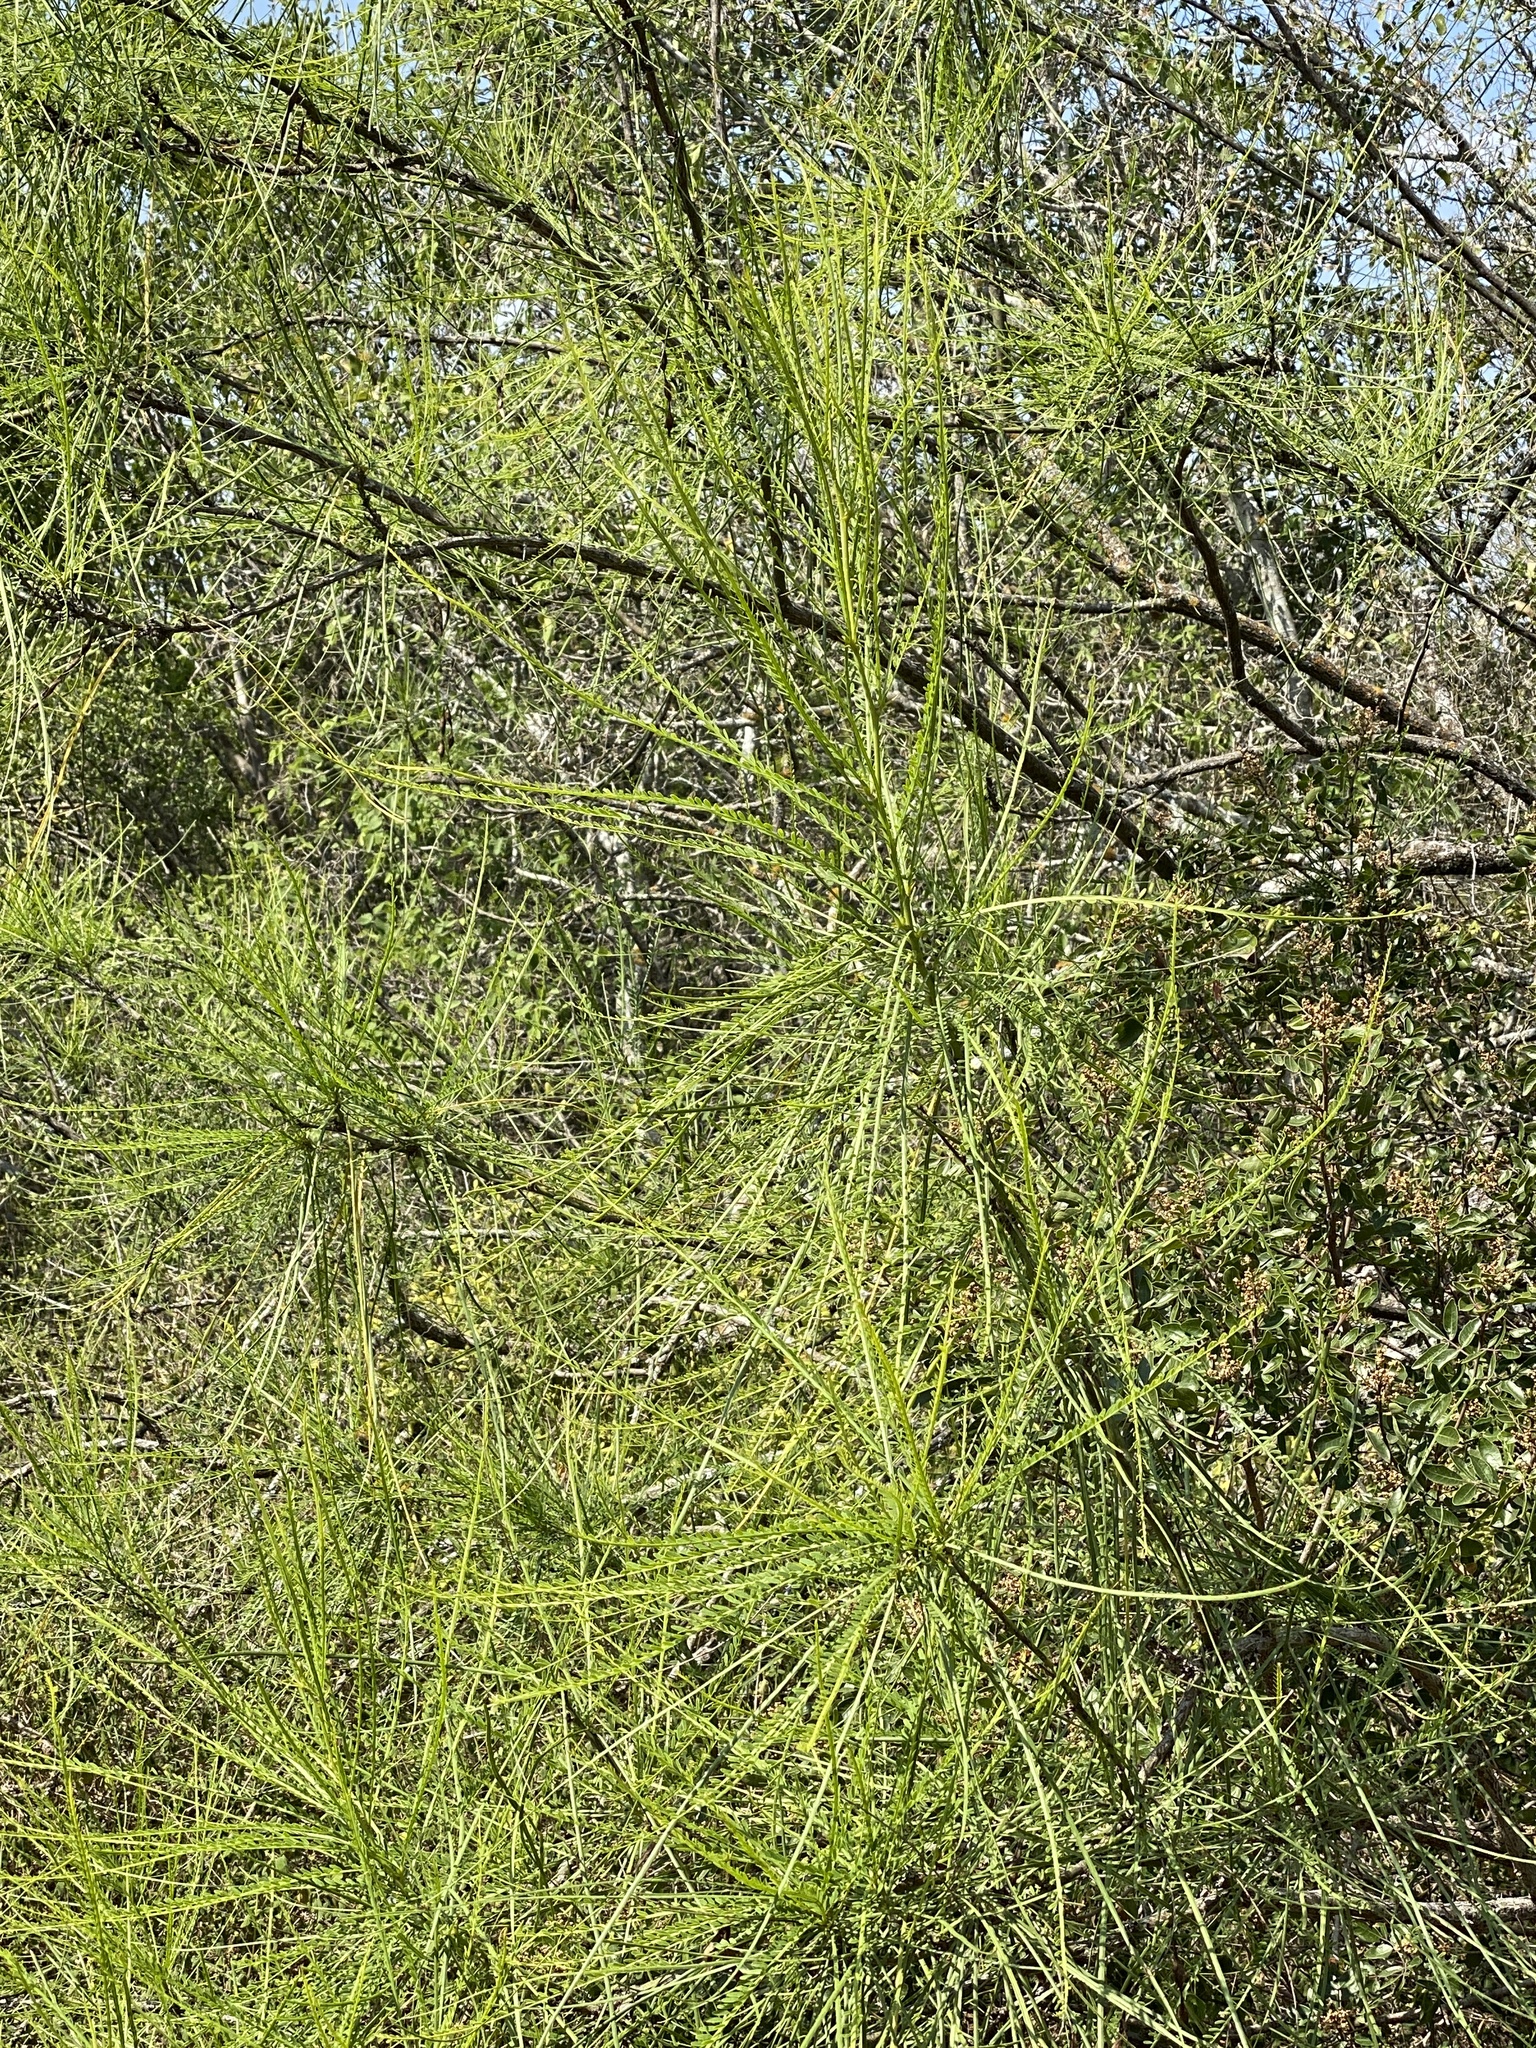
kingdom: Plantae
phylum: Tracheophyta
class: Magnoliopsida
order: Fabales
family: Fabaceae
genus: Parkinsonia
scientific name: Parkinsonia aculeata
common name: Jerusalem thorn
